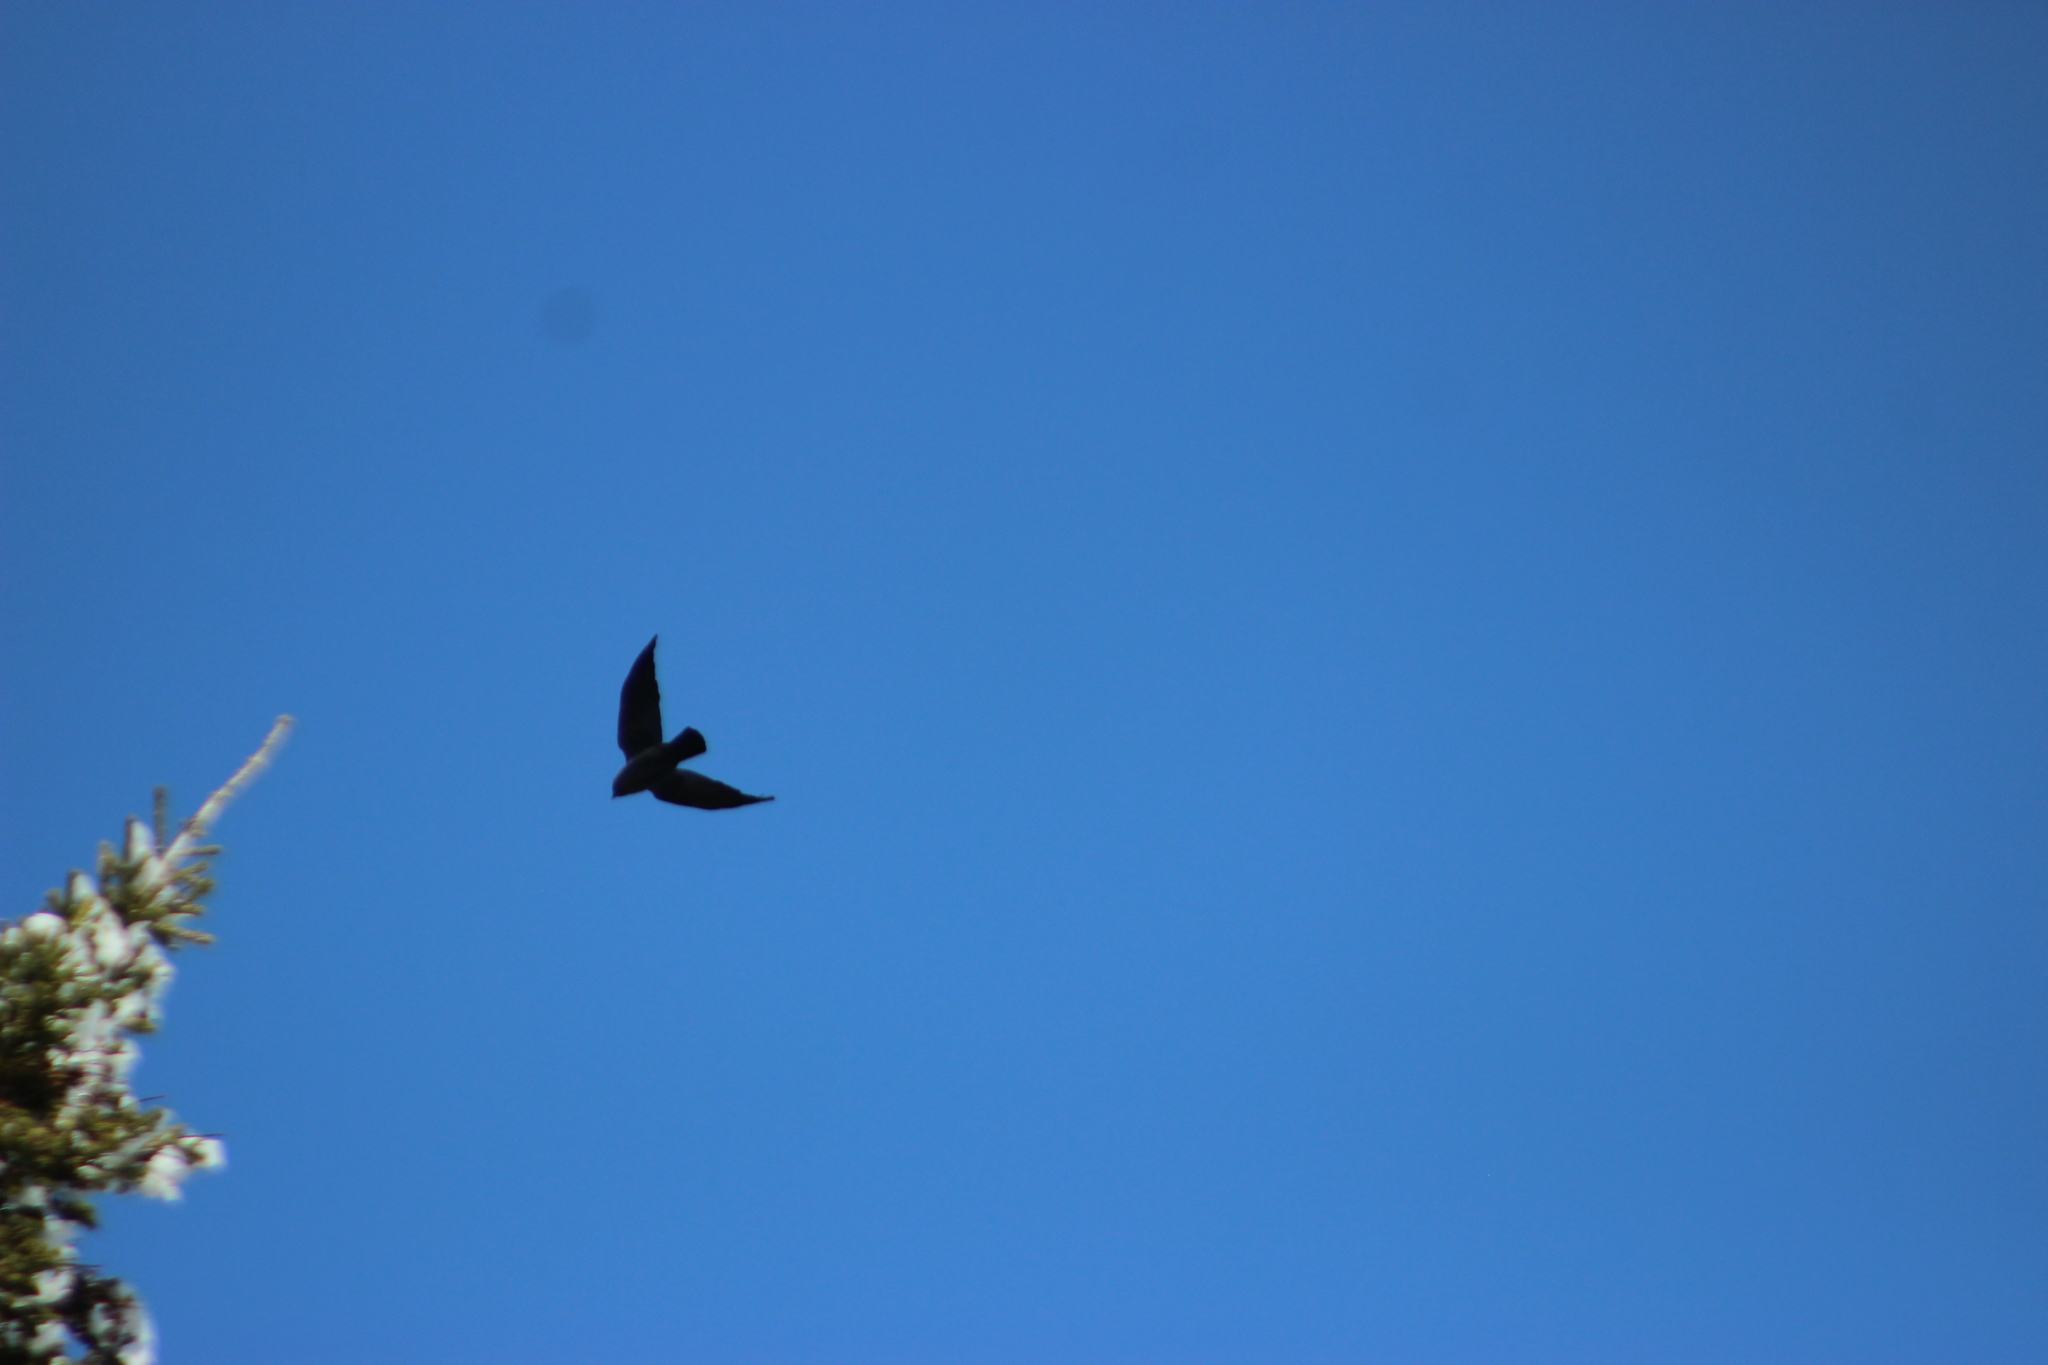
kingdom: Animalia
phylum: Chordata
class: Aves
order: Passeriformes
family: Corvidae
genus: Coloeus
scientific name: Coloeus monedula
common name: Western jackdaw
